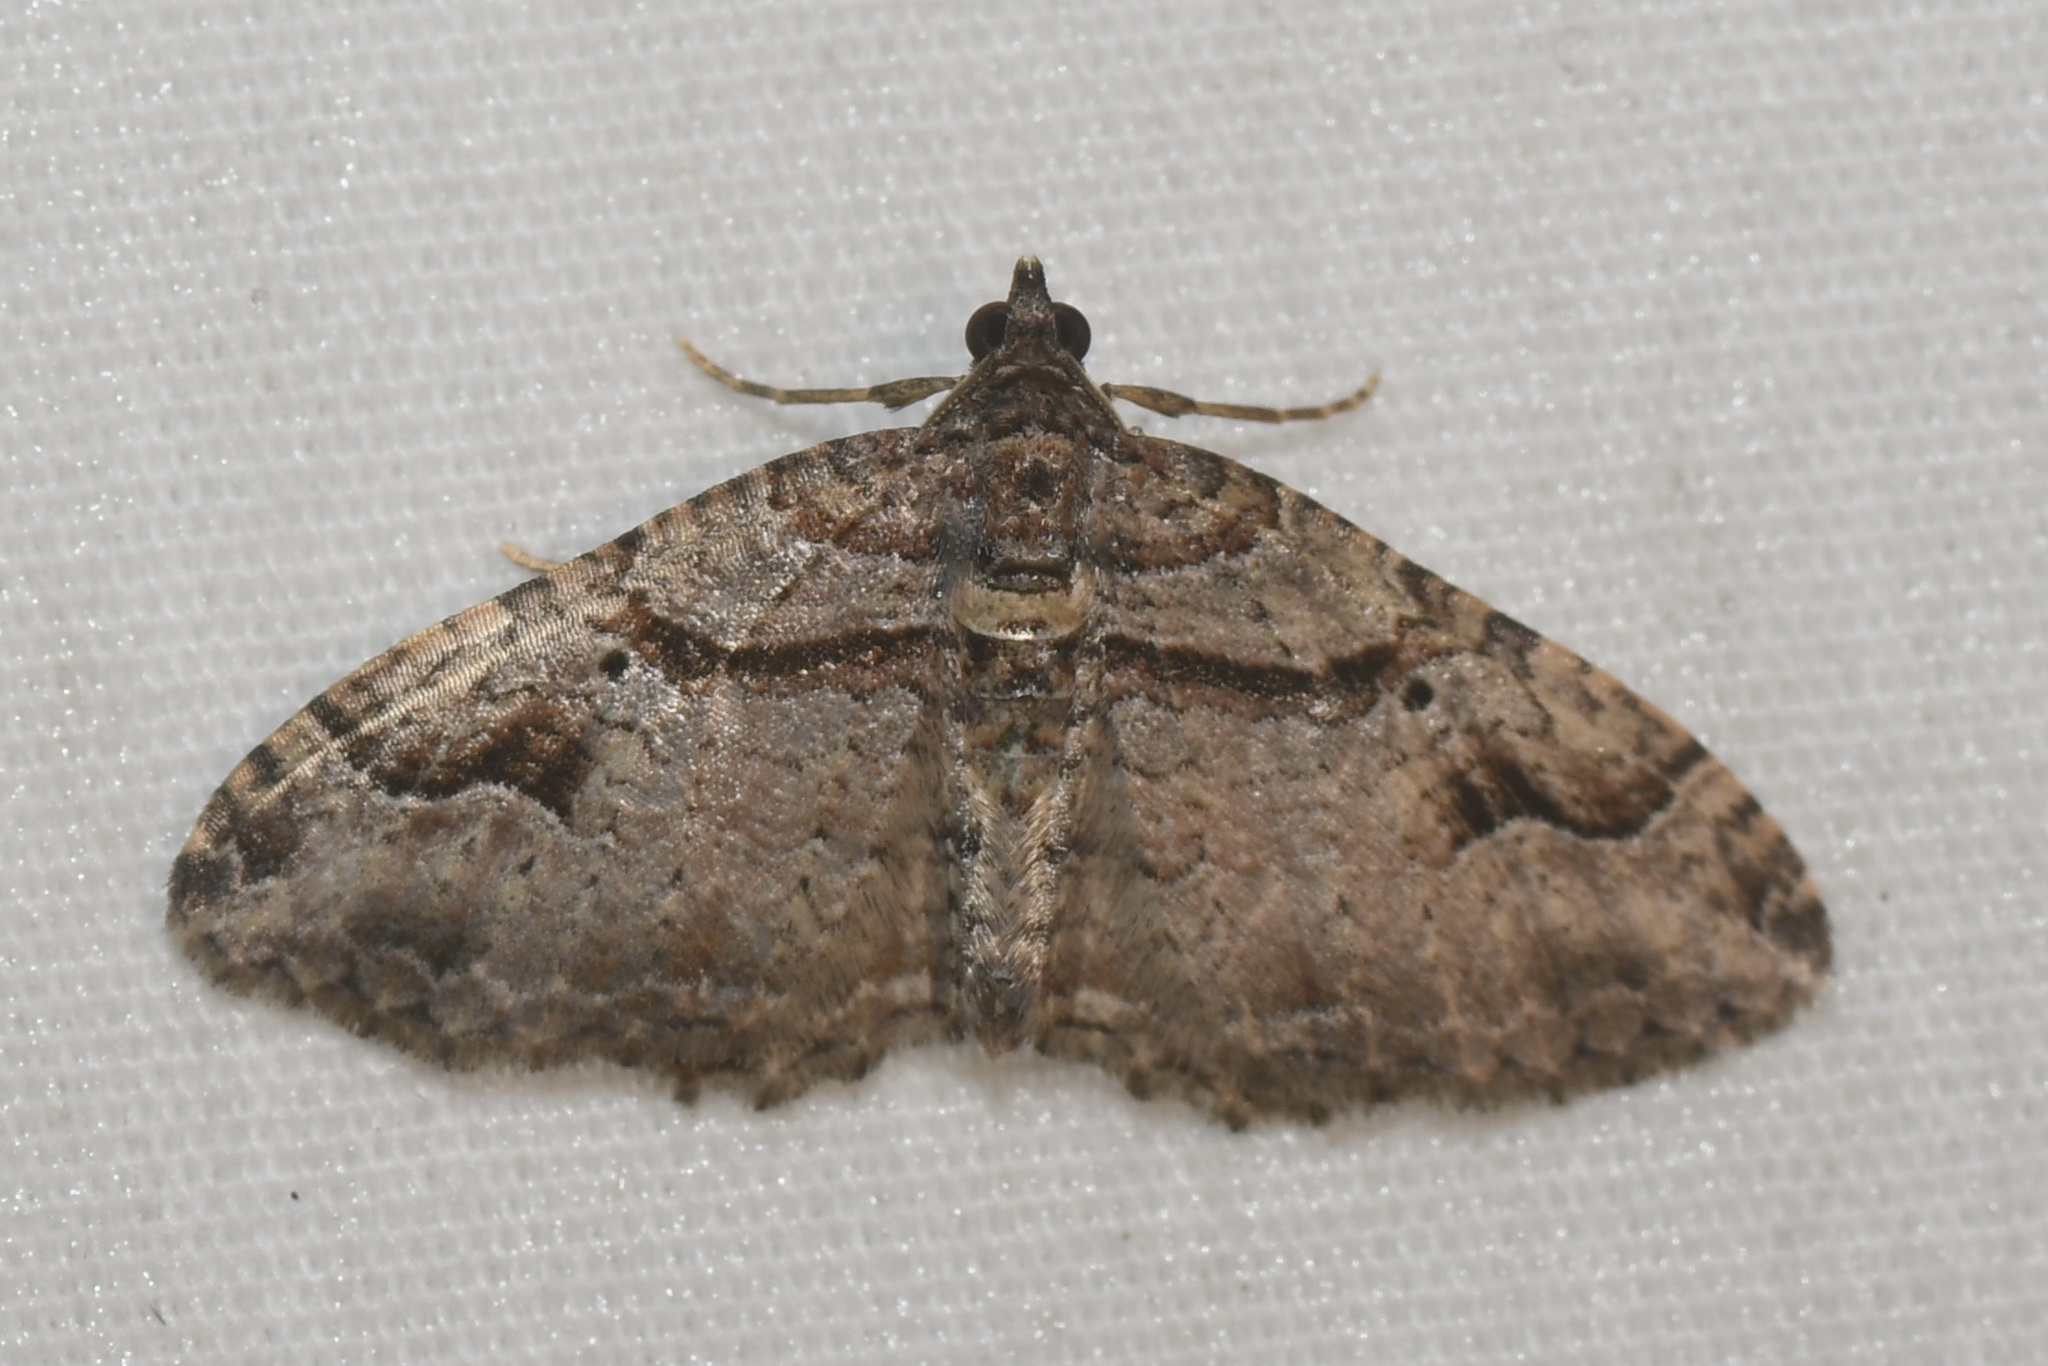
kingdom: Animalia
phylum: Arthropoda
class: Insecta
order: Lepidoptera
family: Geometridae
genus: Costaconvexa
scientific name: Costaconvexa centrostrigaria
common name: Bent-line carpet
